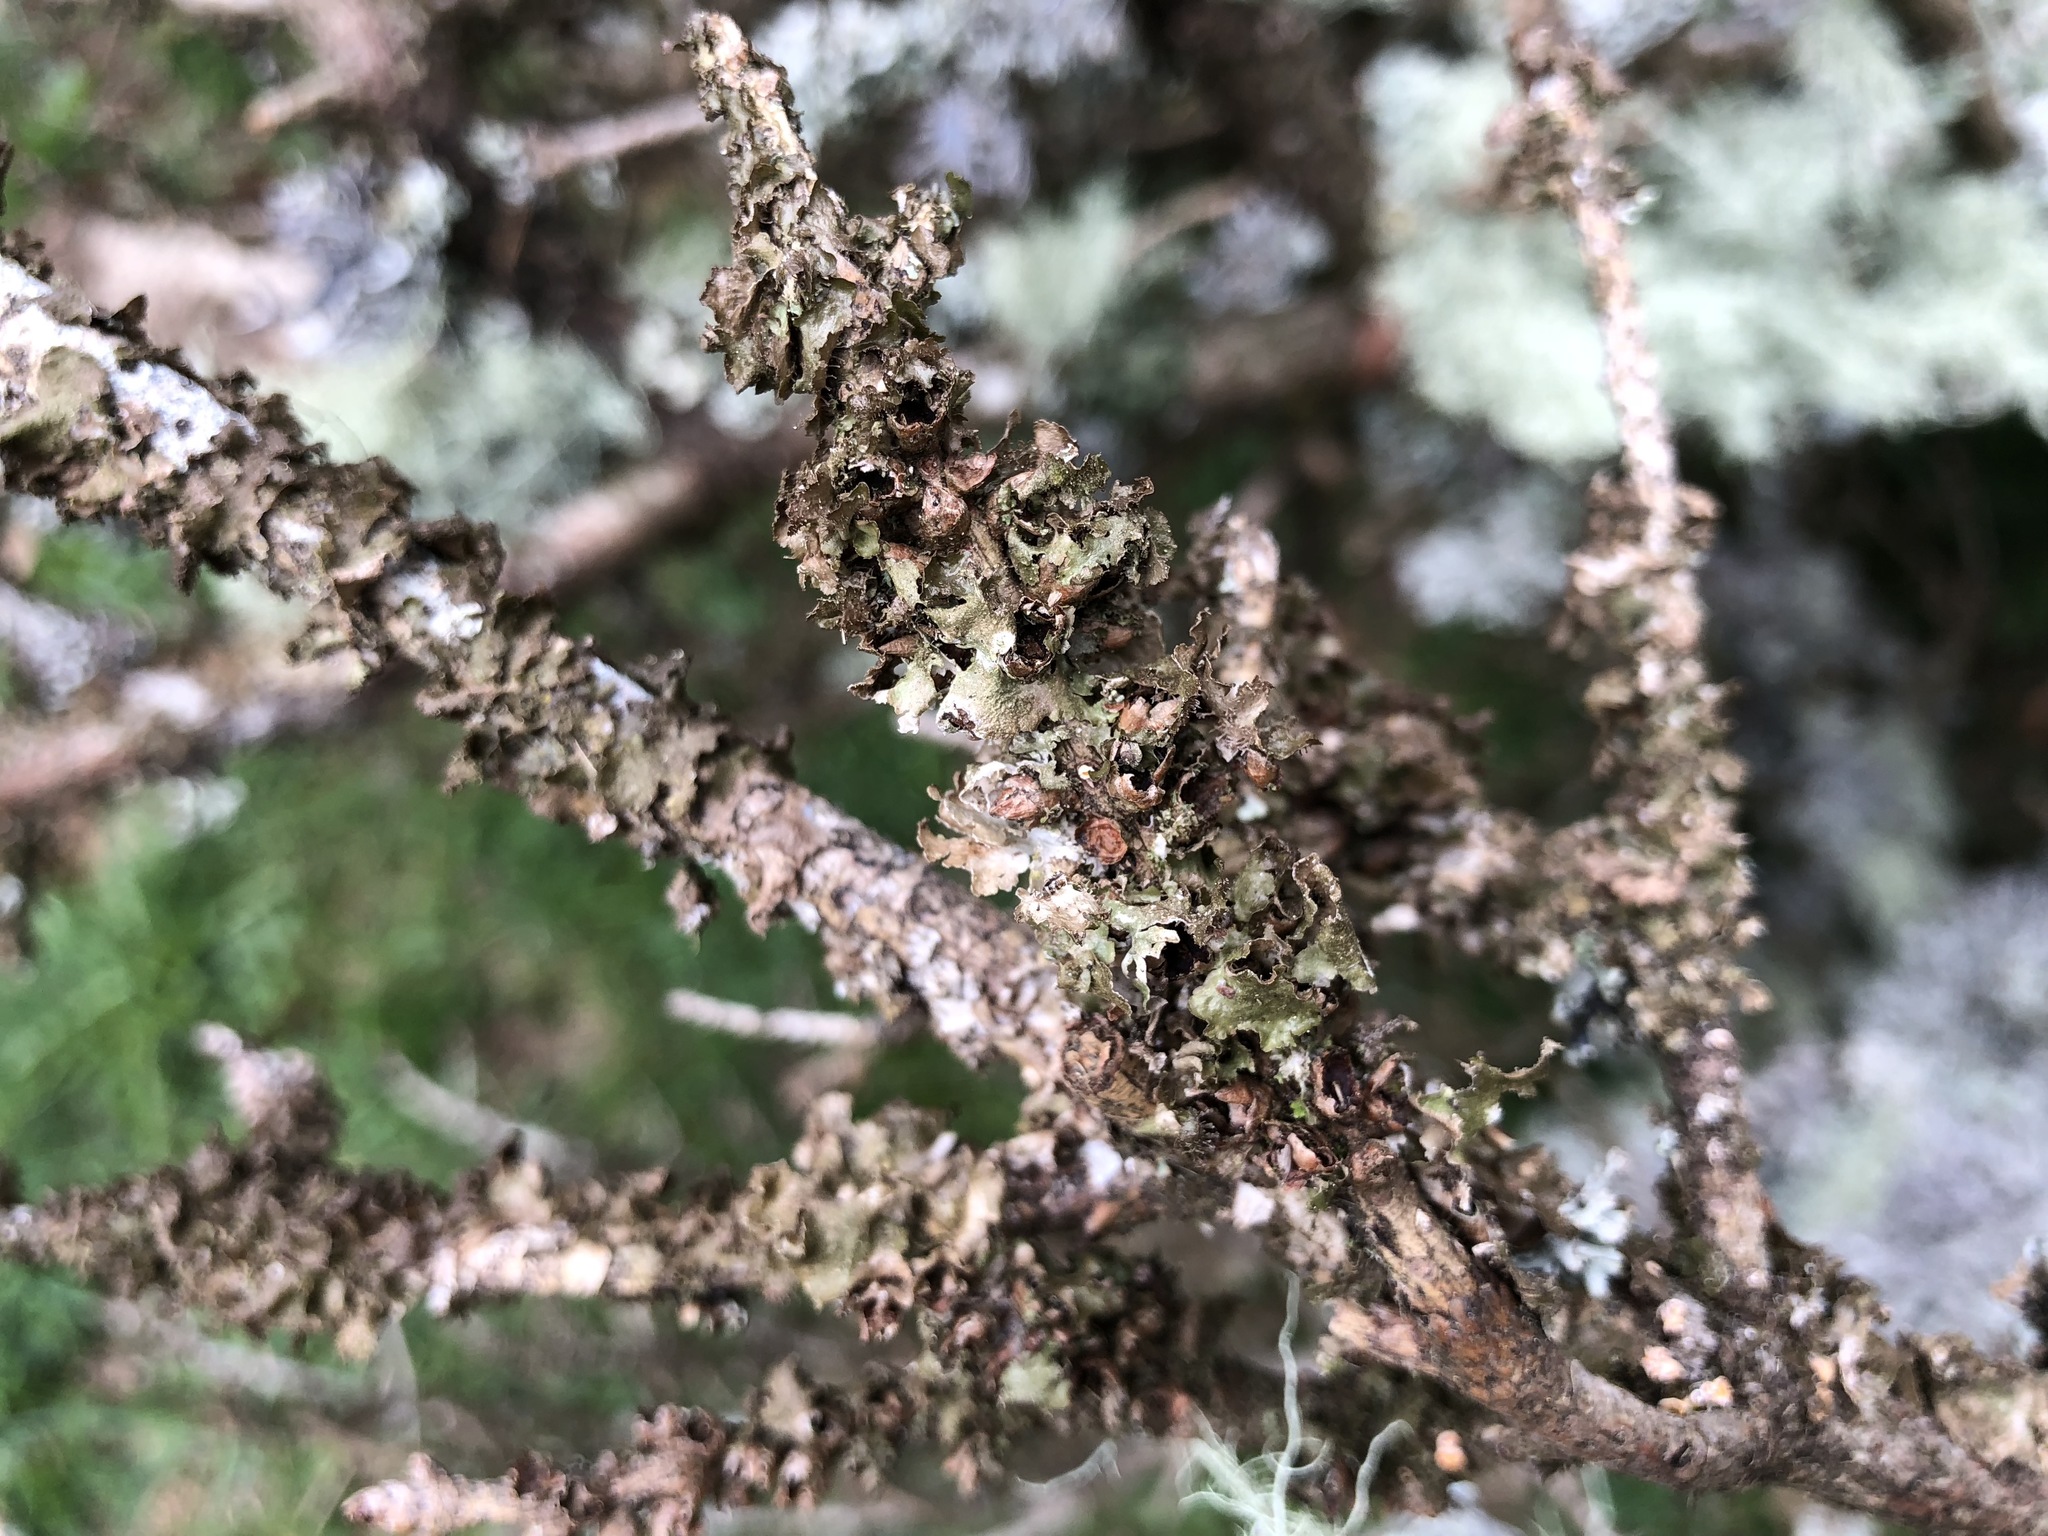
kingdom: Fungi
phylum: Ascomycota
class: Lecanoromycetes
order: Lecanorales
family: Parmeliaceae
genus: Platismatia
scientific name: Platismatia glauca
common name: Varied rag lichen
